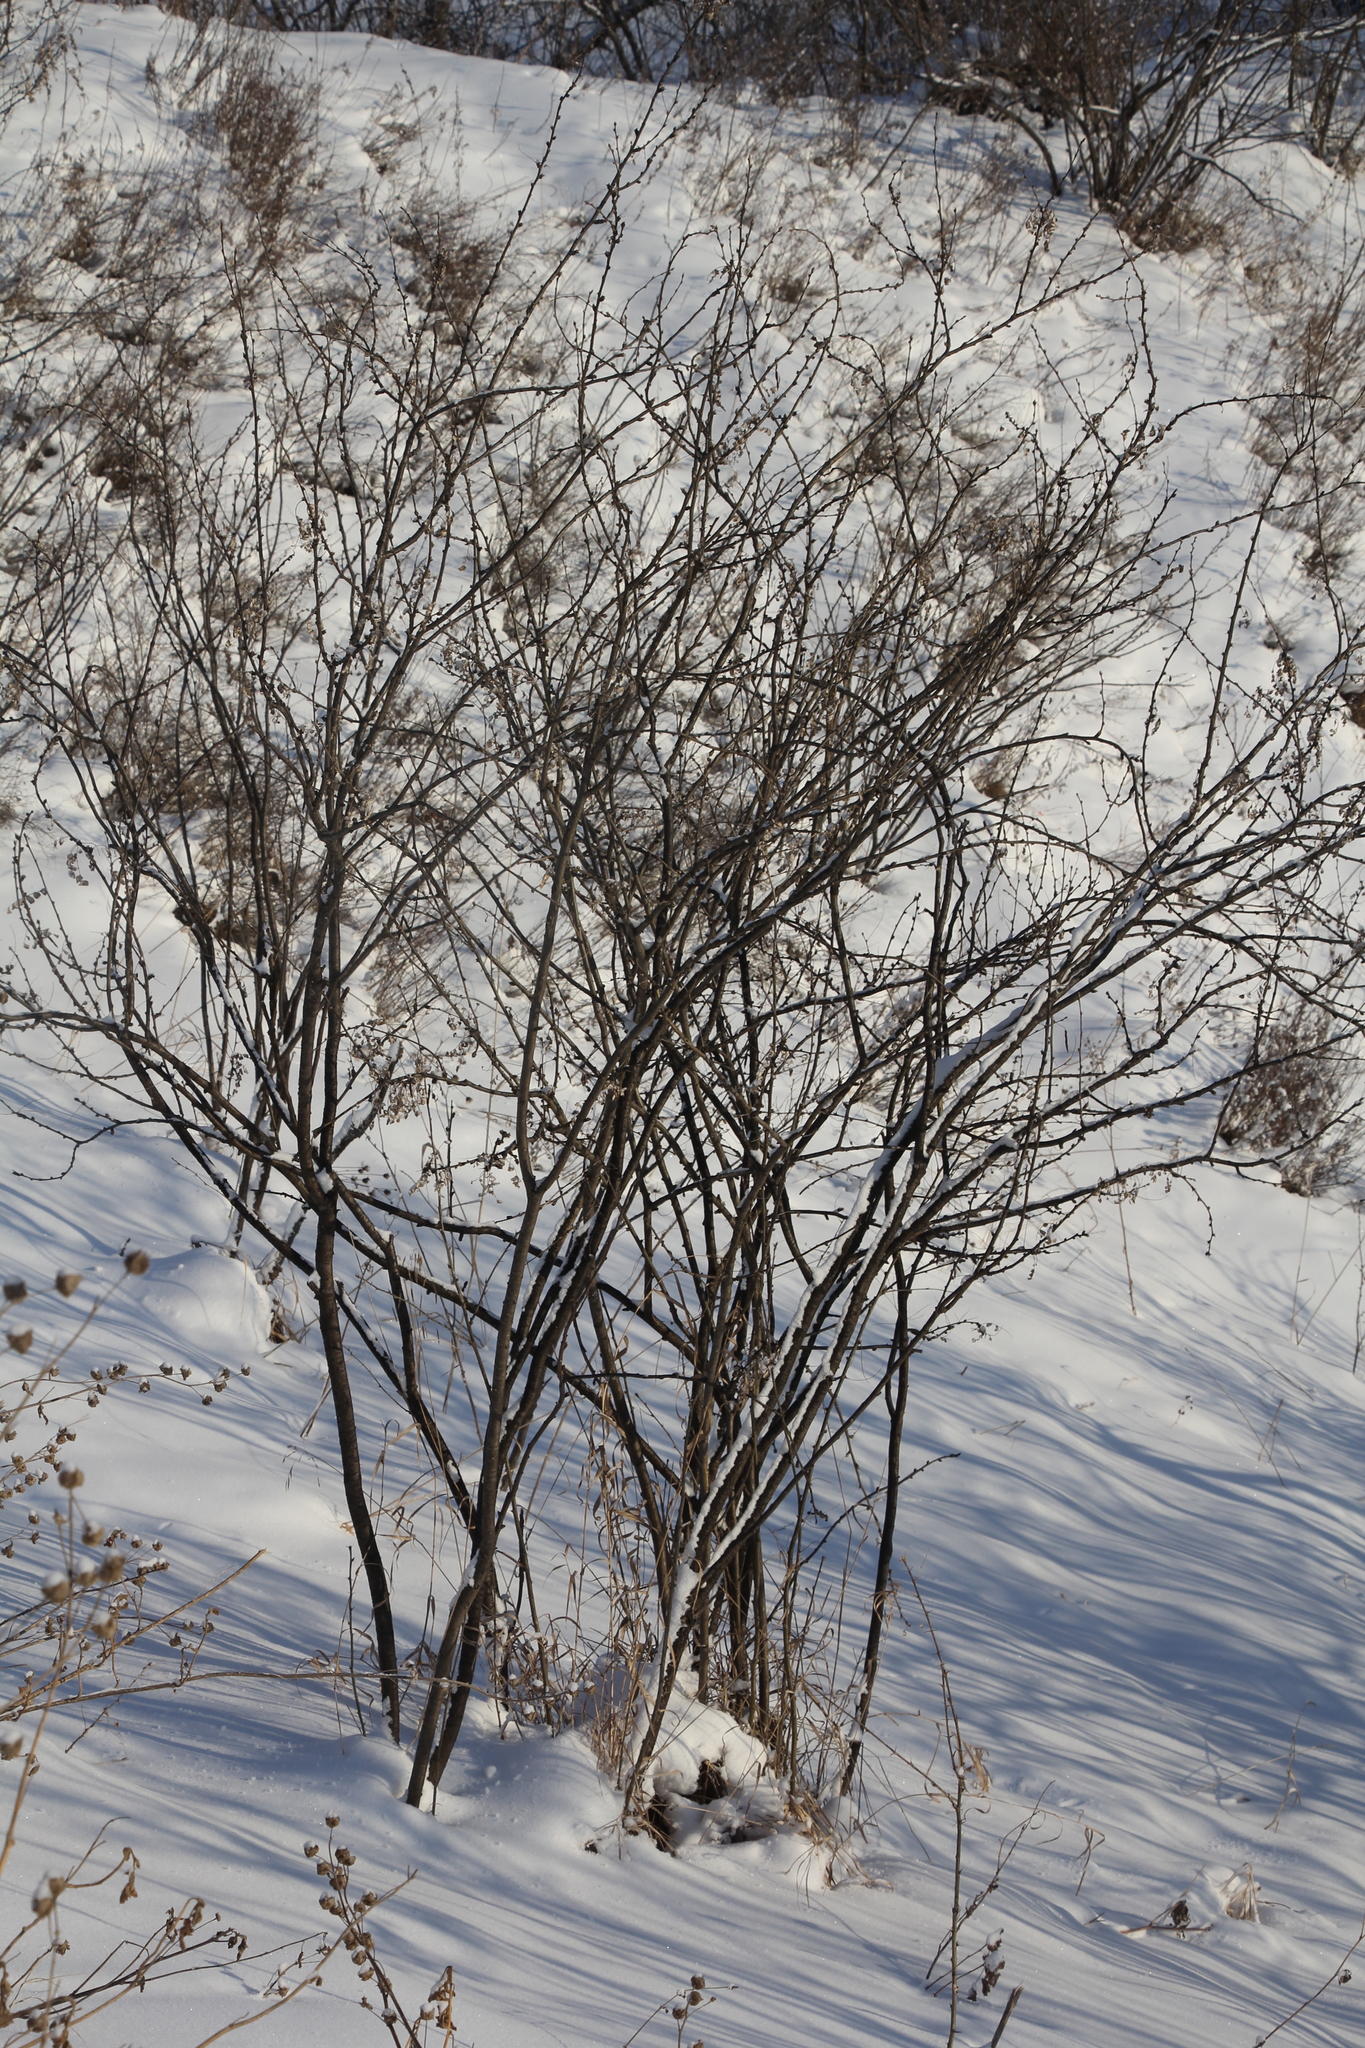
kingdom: Plantae
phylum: Tracheophyta
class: Magnoliopsida
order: Fabales
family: Fabaceae
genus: Caragana
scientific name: Caragana arborescens
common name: Siberian peashrub
